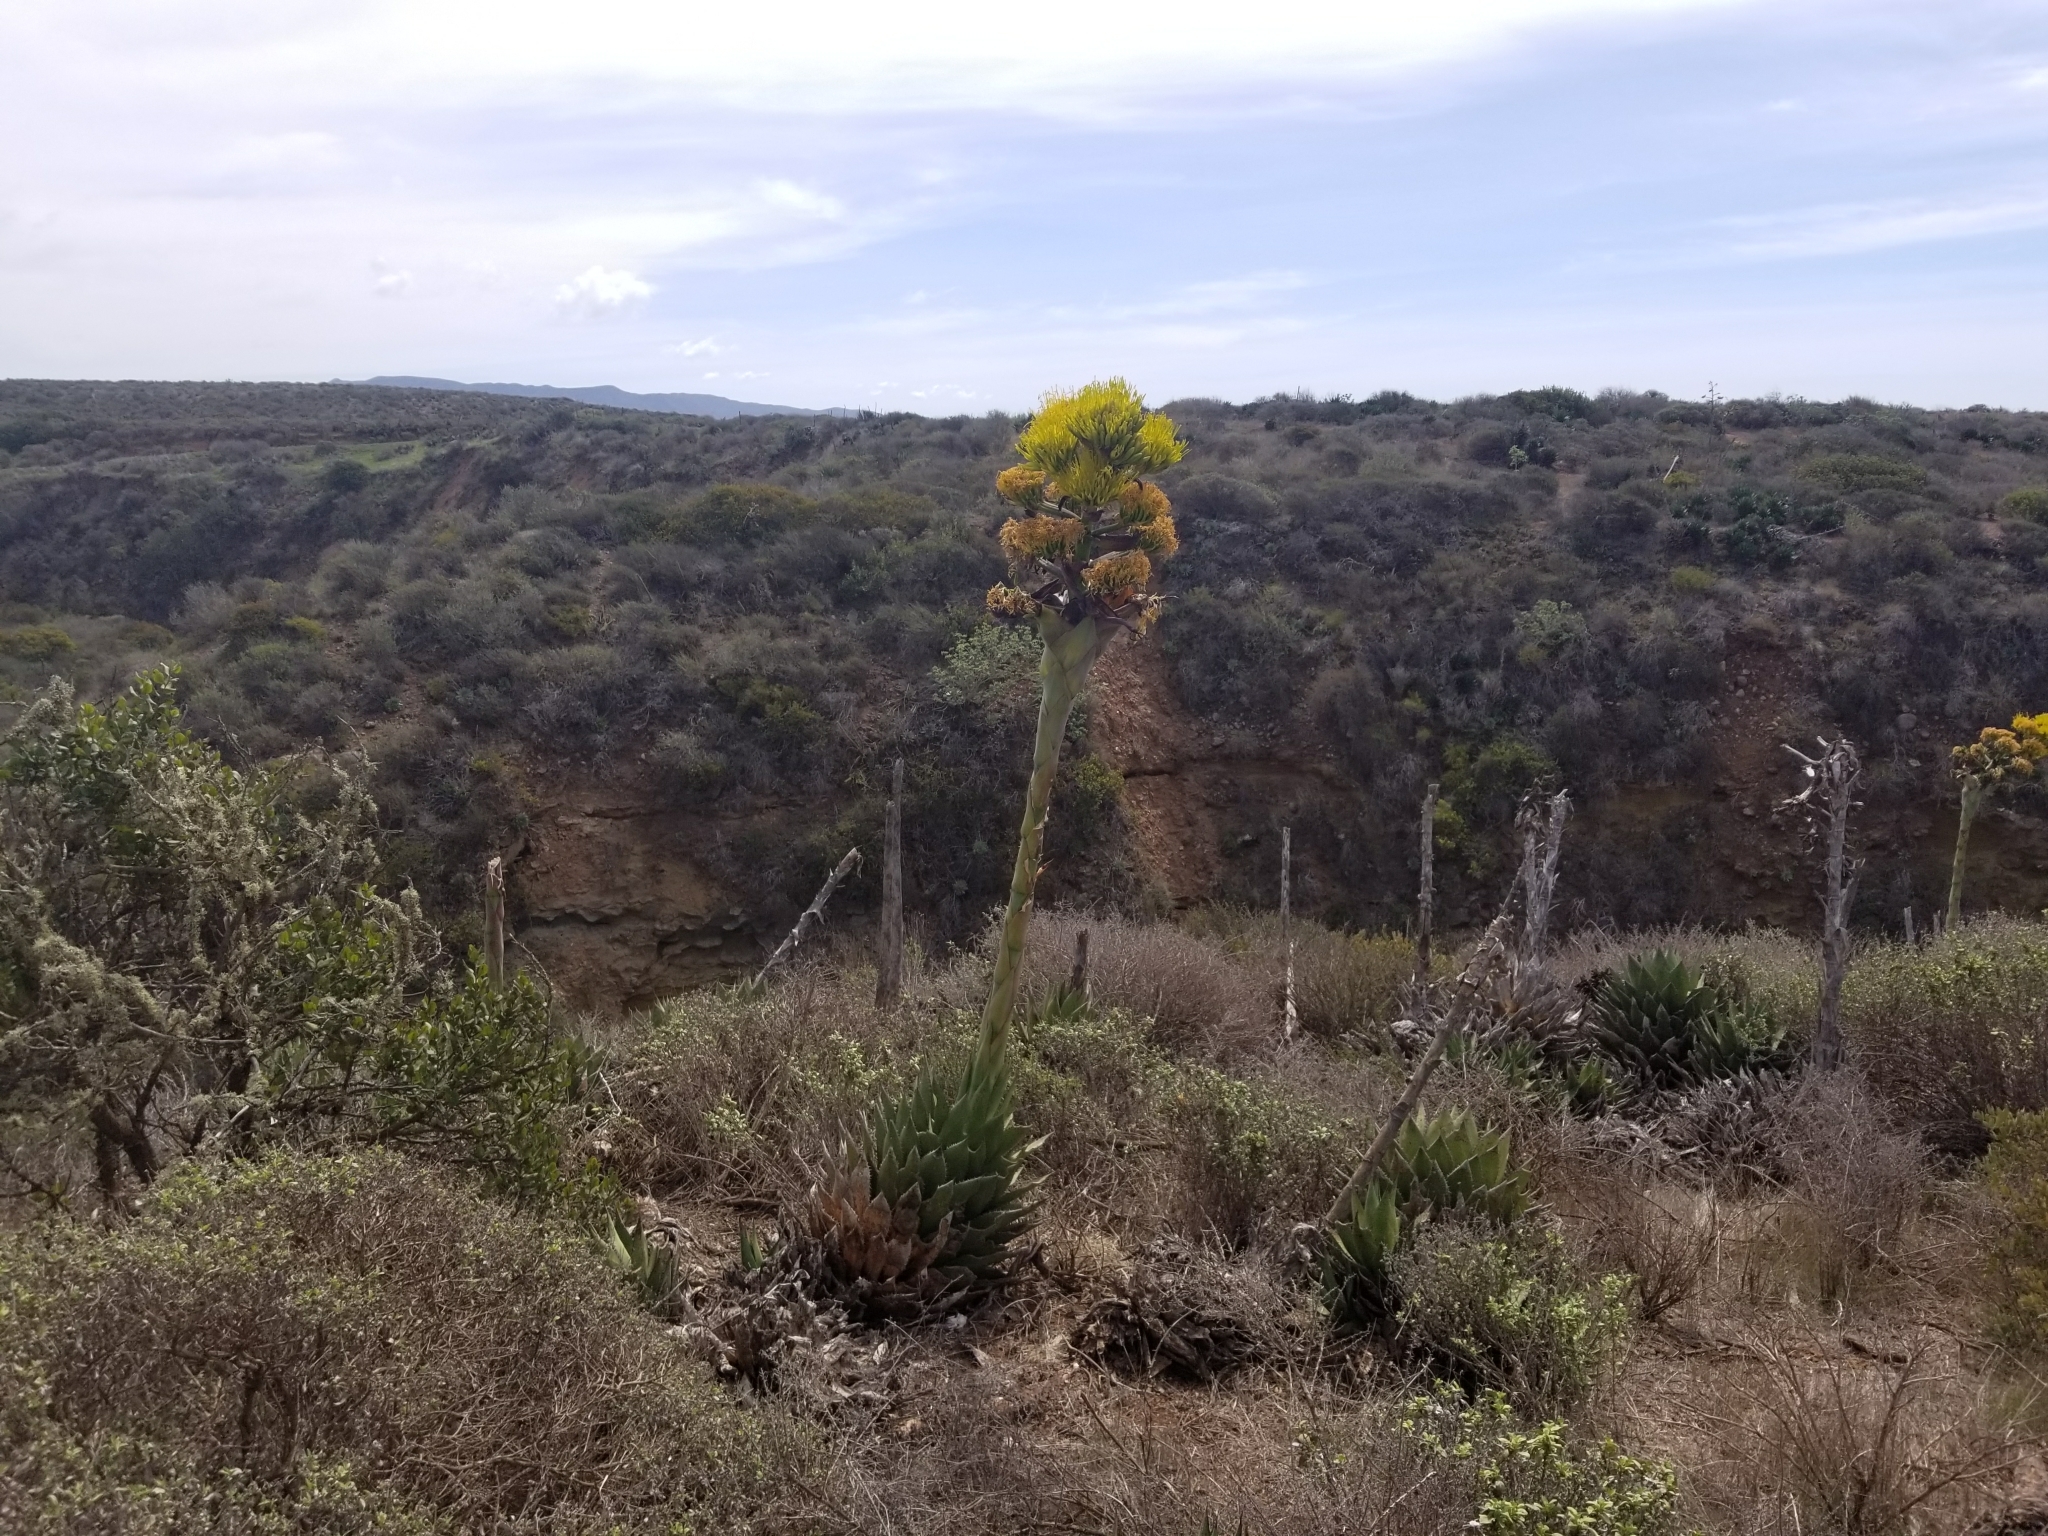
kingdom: Plantae
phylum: Tracheophyta
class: Liliopsida
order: Asparagales
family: Asparagaceae
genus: Agave
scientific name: Agave shawii
